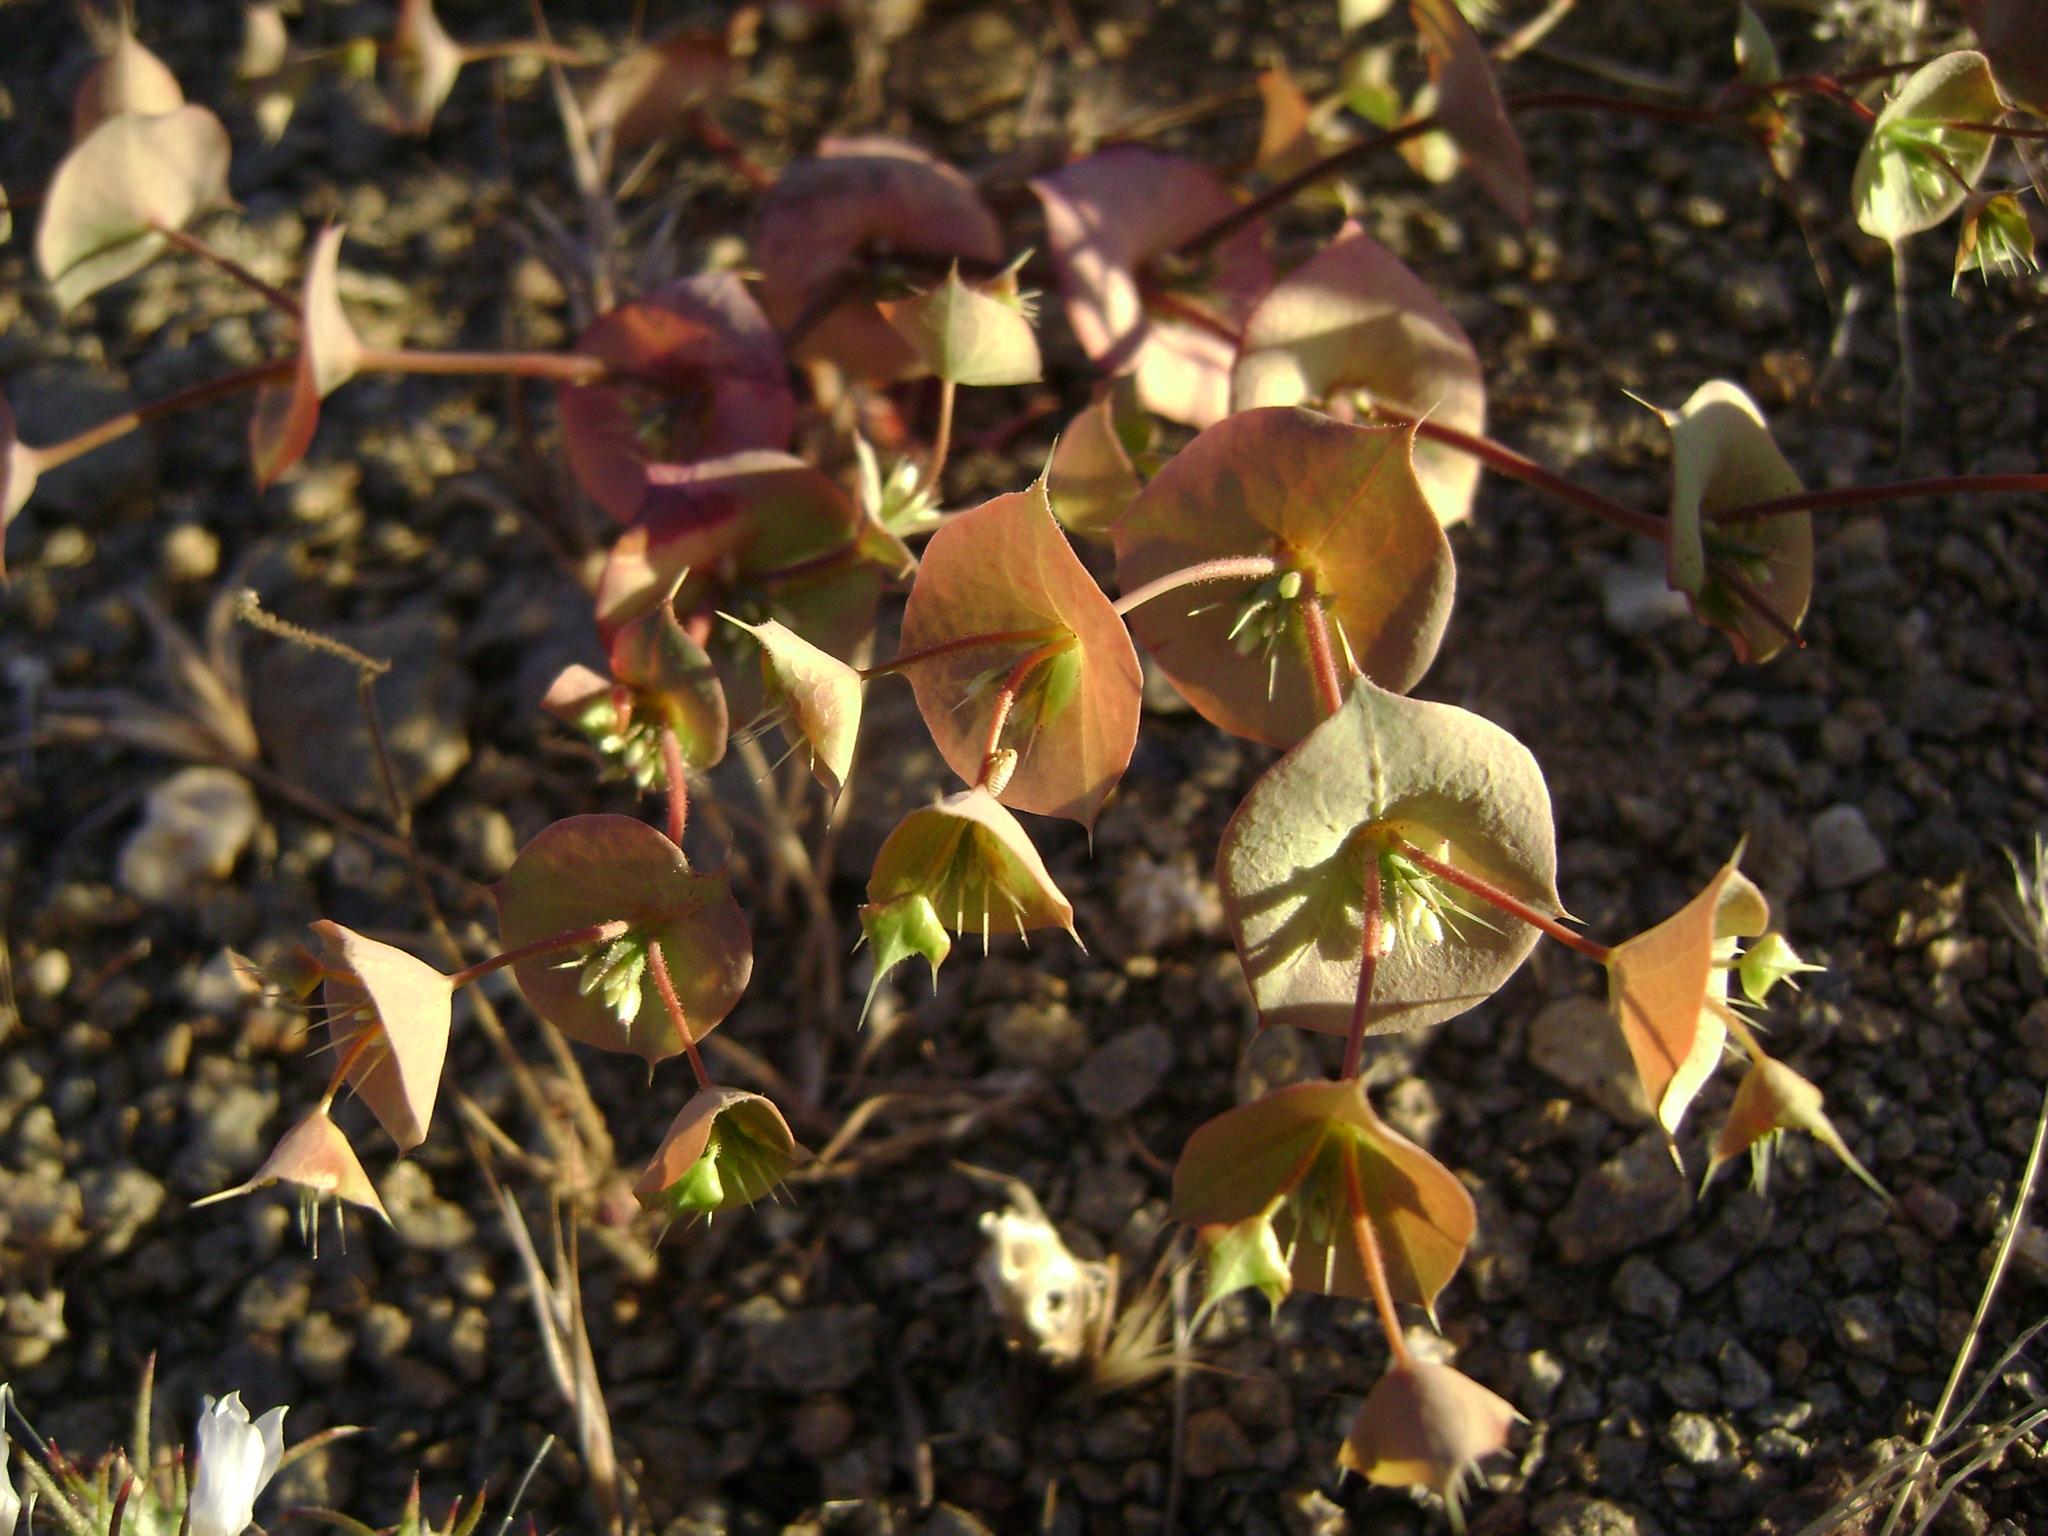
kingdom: Plantae
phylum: Tracheophyta
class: Magnoliopsida
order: Caryophyllales
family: Polygonaceae
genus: Oxytheca
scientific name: Oxytheca perfoliata
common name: Round-leaf puncturebract
